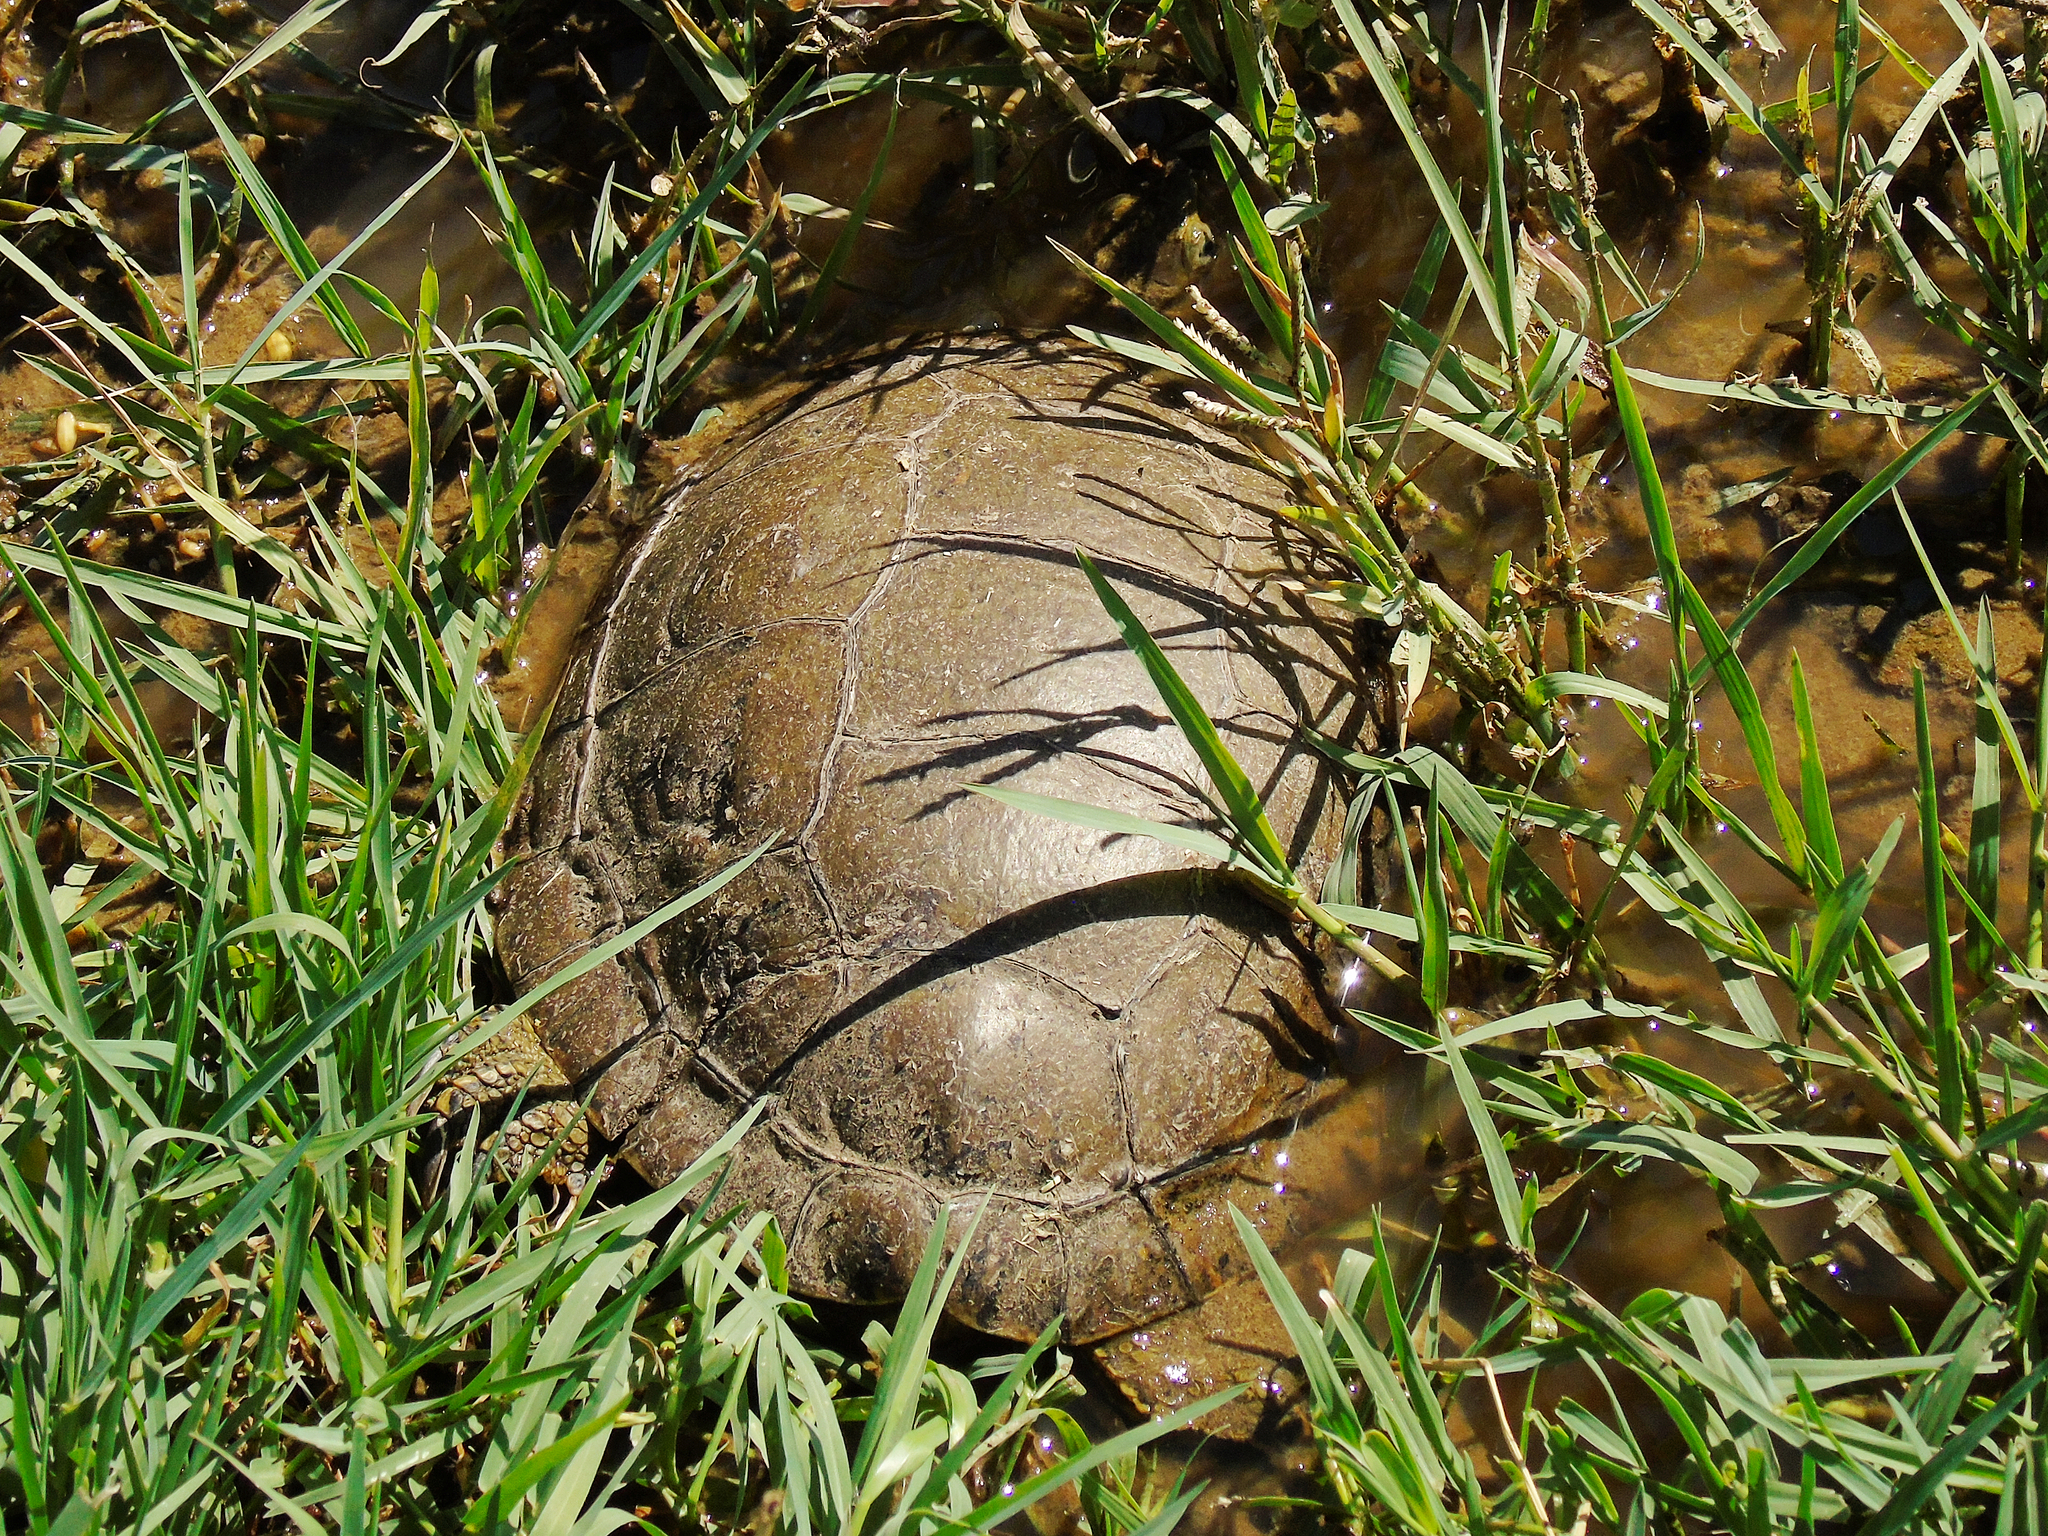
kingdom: Animalia
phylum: Chordata
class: Testudines
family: Geoemydidae
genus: Mauremys
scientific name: Mauremys caspica
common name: Caspian turtle
